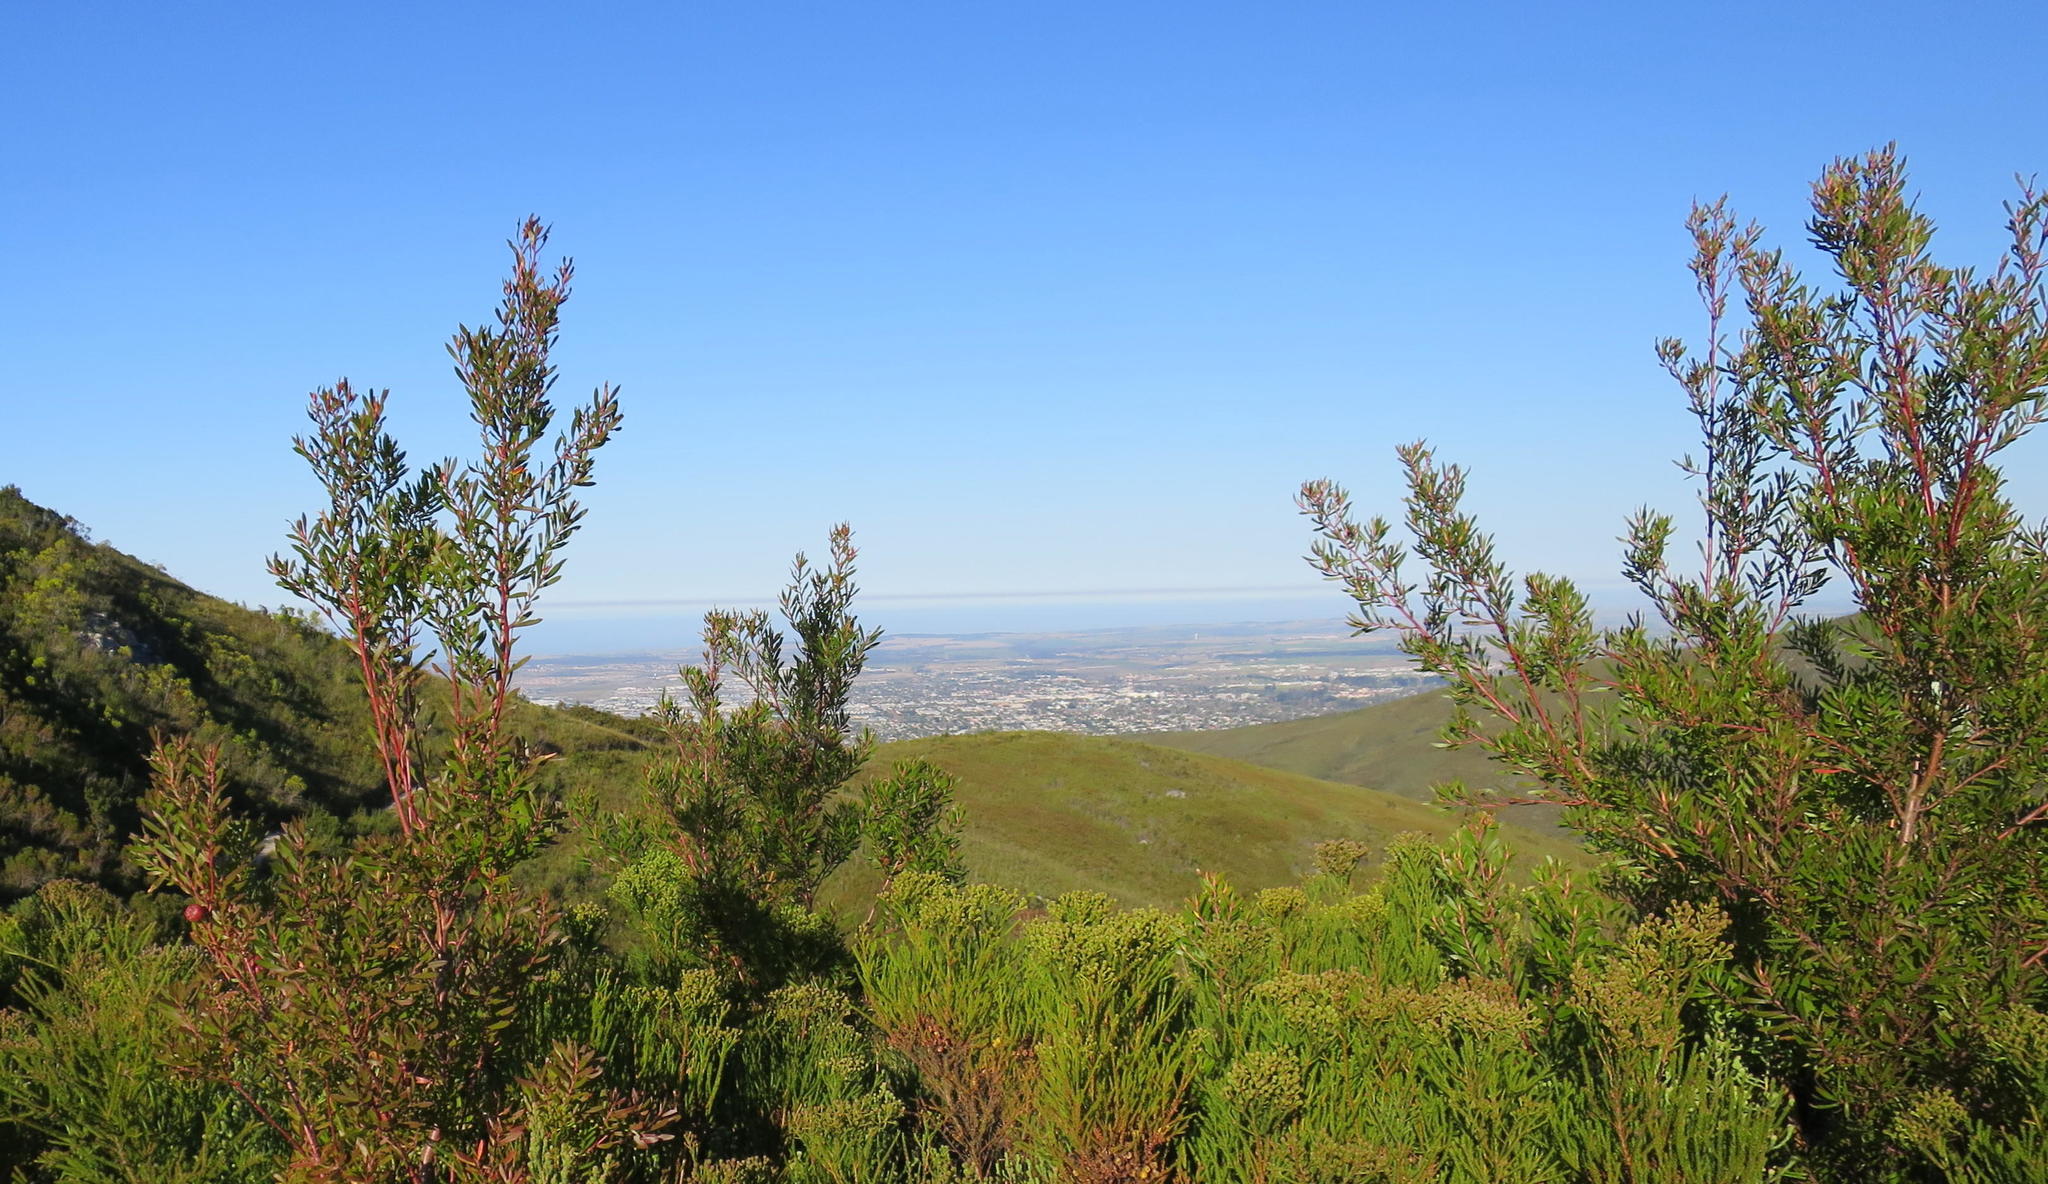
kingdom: Plantae
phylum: Tracheophyta
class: Magnoliopsida
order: Proteales
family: Proteaceae
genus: Leucadendron
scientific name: Leucadendron conicum
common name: Garden route conebush
